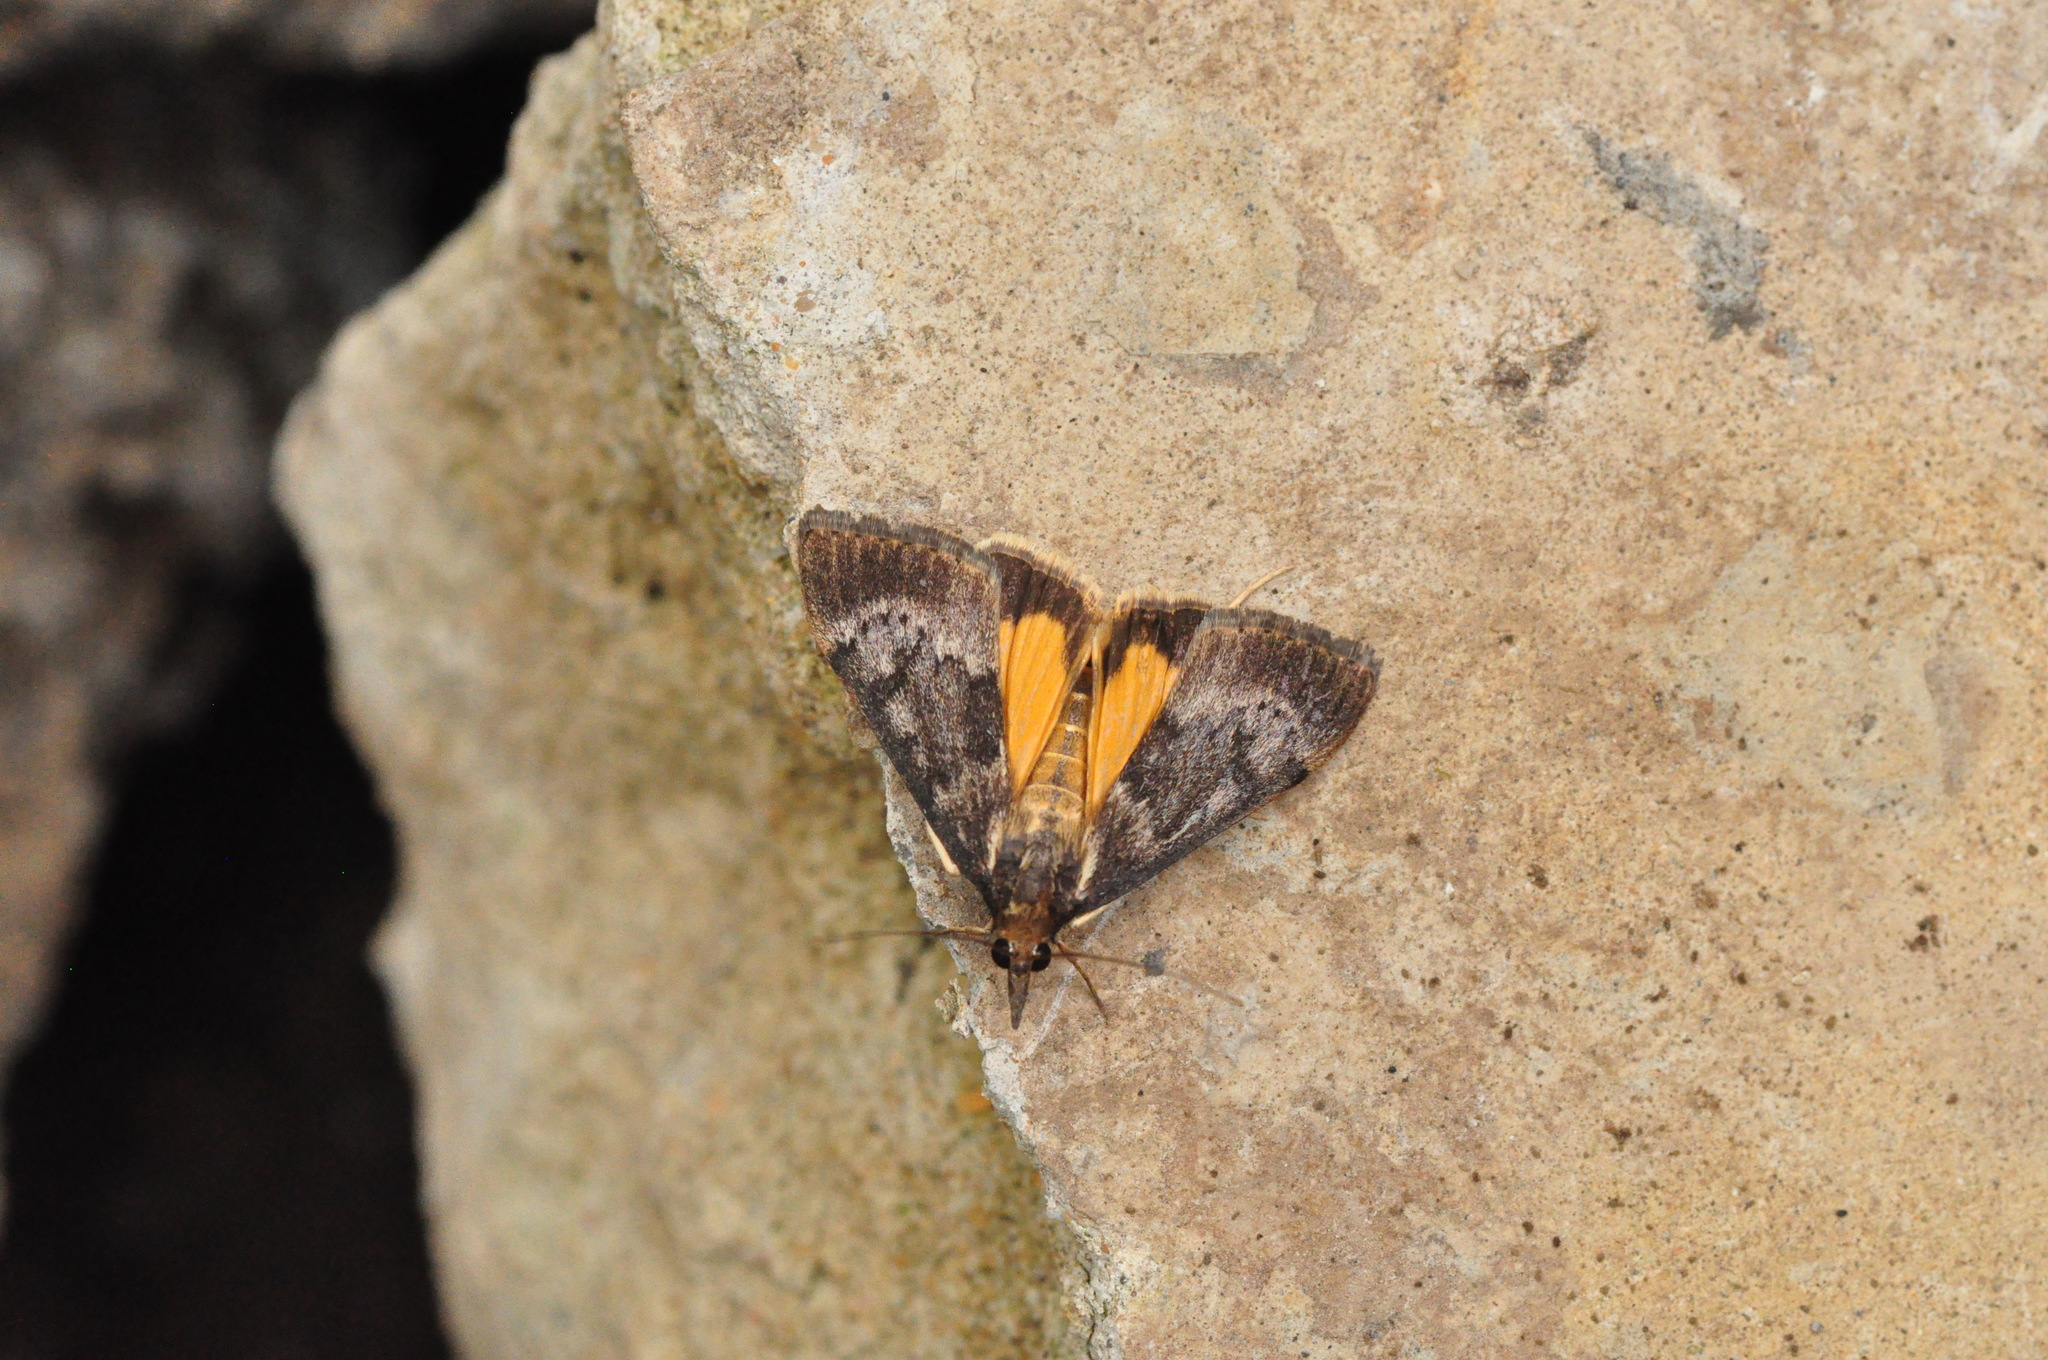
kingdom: Animalia
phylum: Arthropoda
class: Insecta
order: Lepidoptera
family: Crambidae
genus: Uresiphita
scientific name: Uresiphita gilvata
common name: Yellow-underwing pearl
